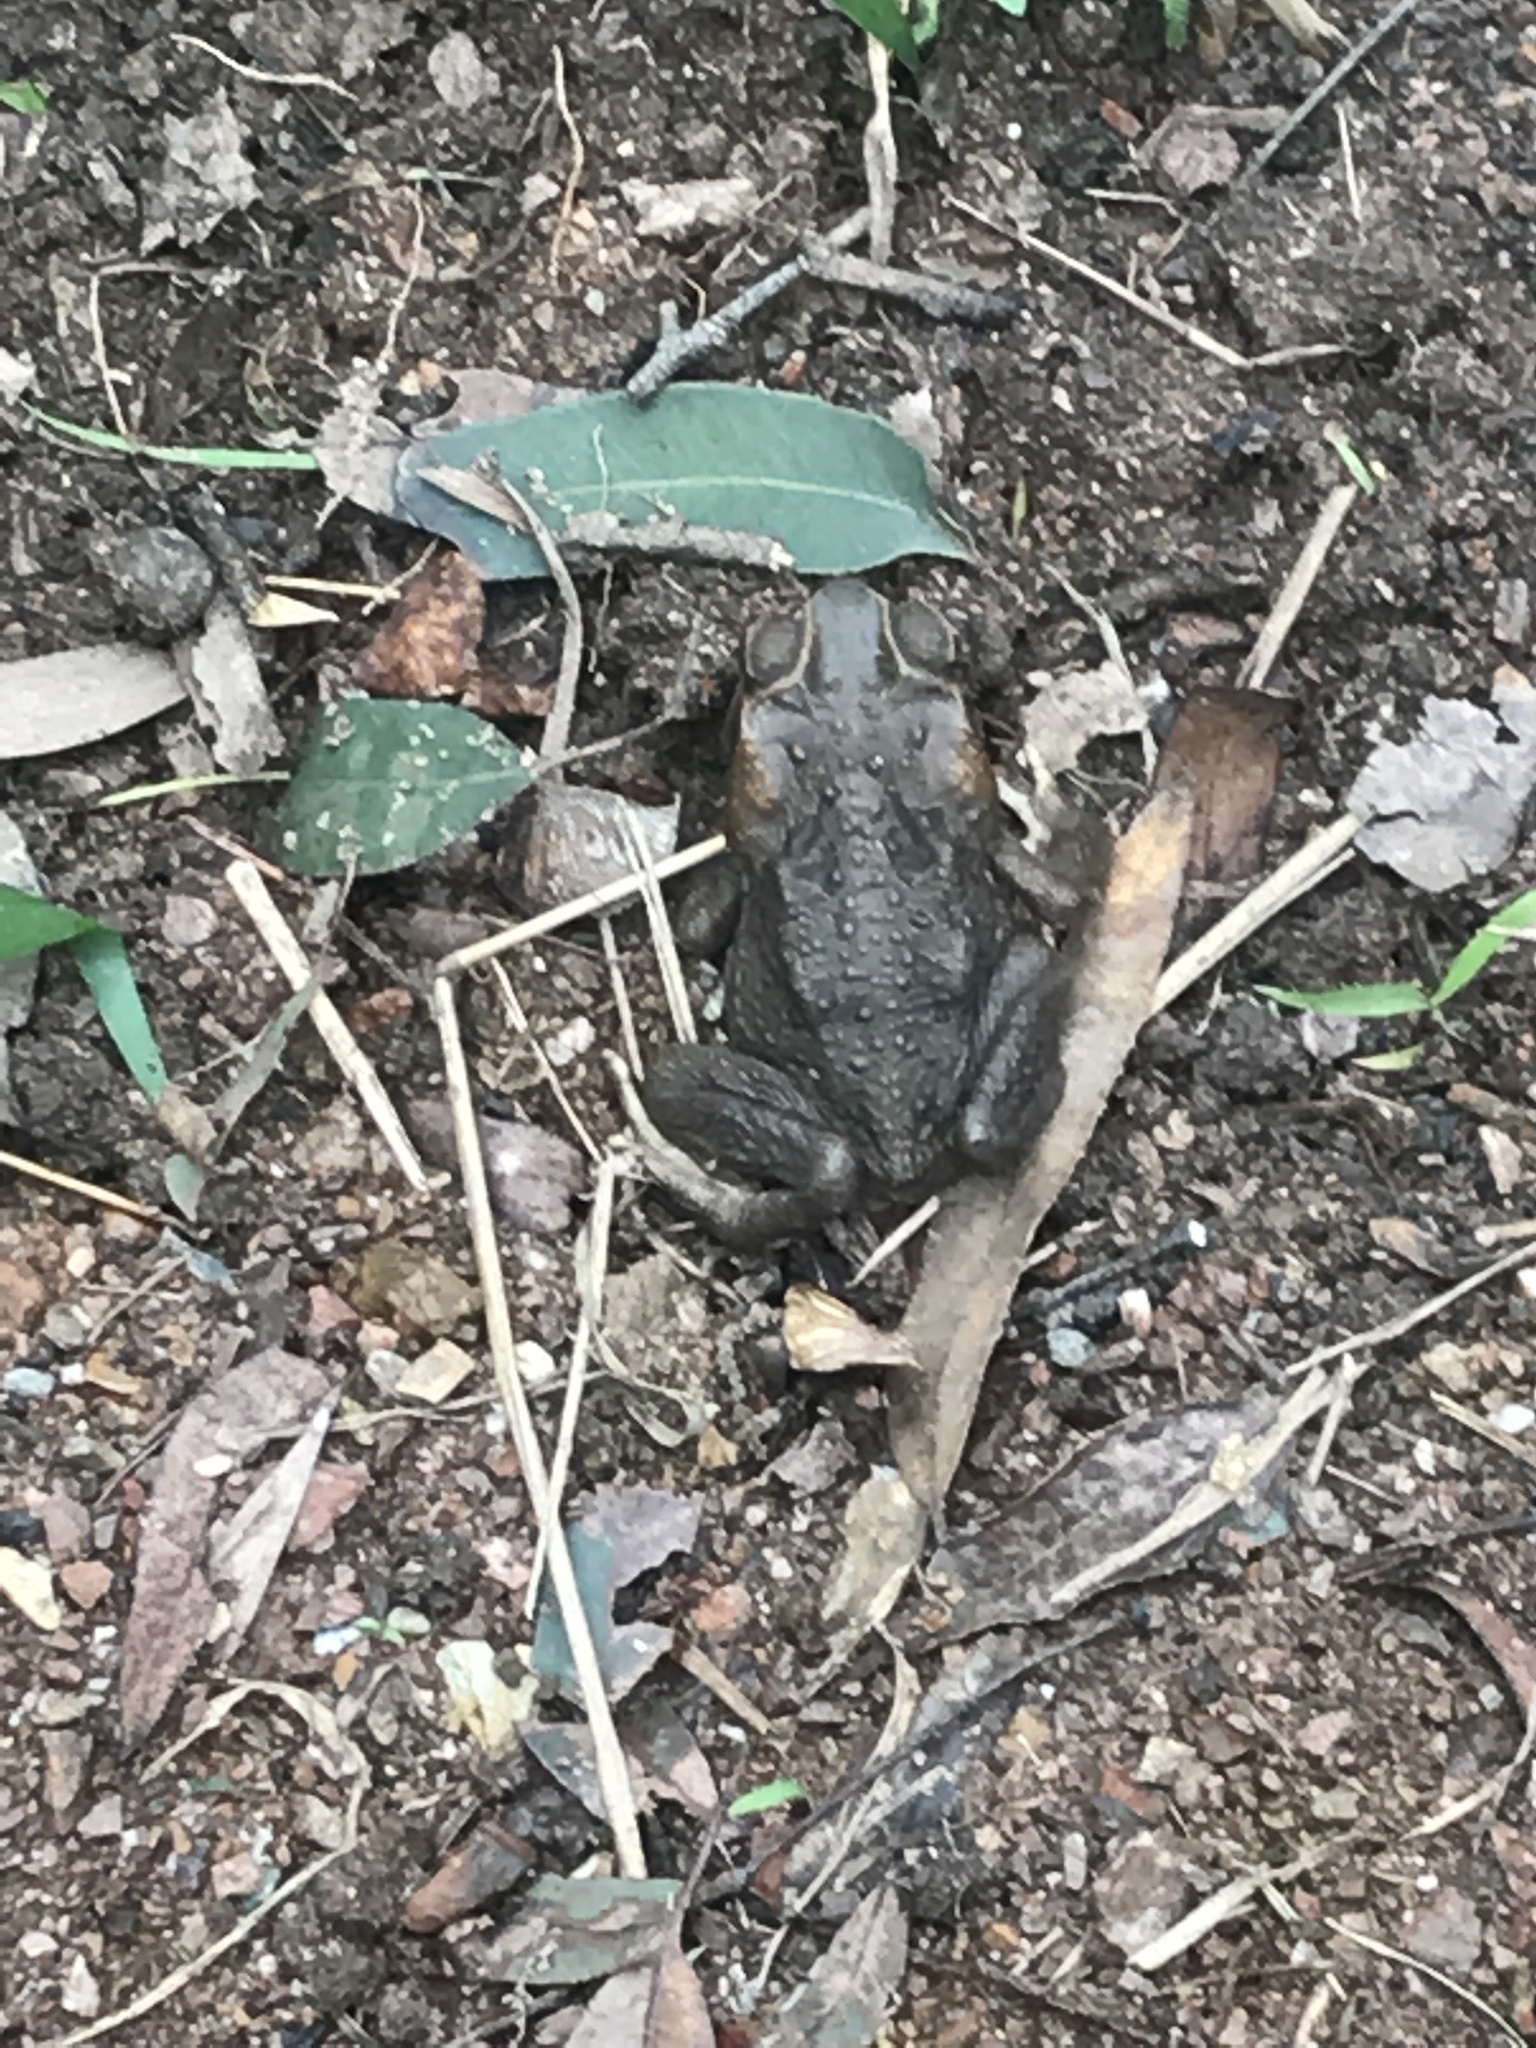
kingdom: Animalia
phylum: Chordata
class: Amphibia
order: Anura
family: Bufonidae
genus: Rhinella
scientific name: Rhinella marina
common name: Cane toad
